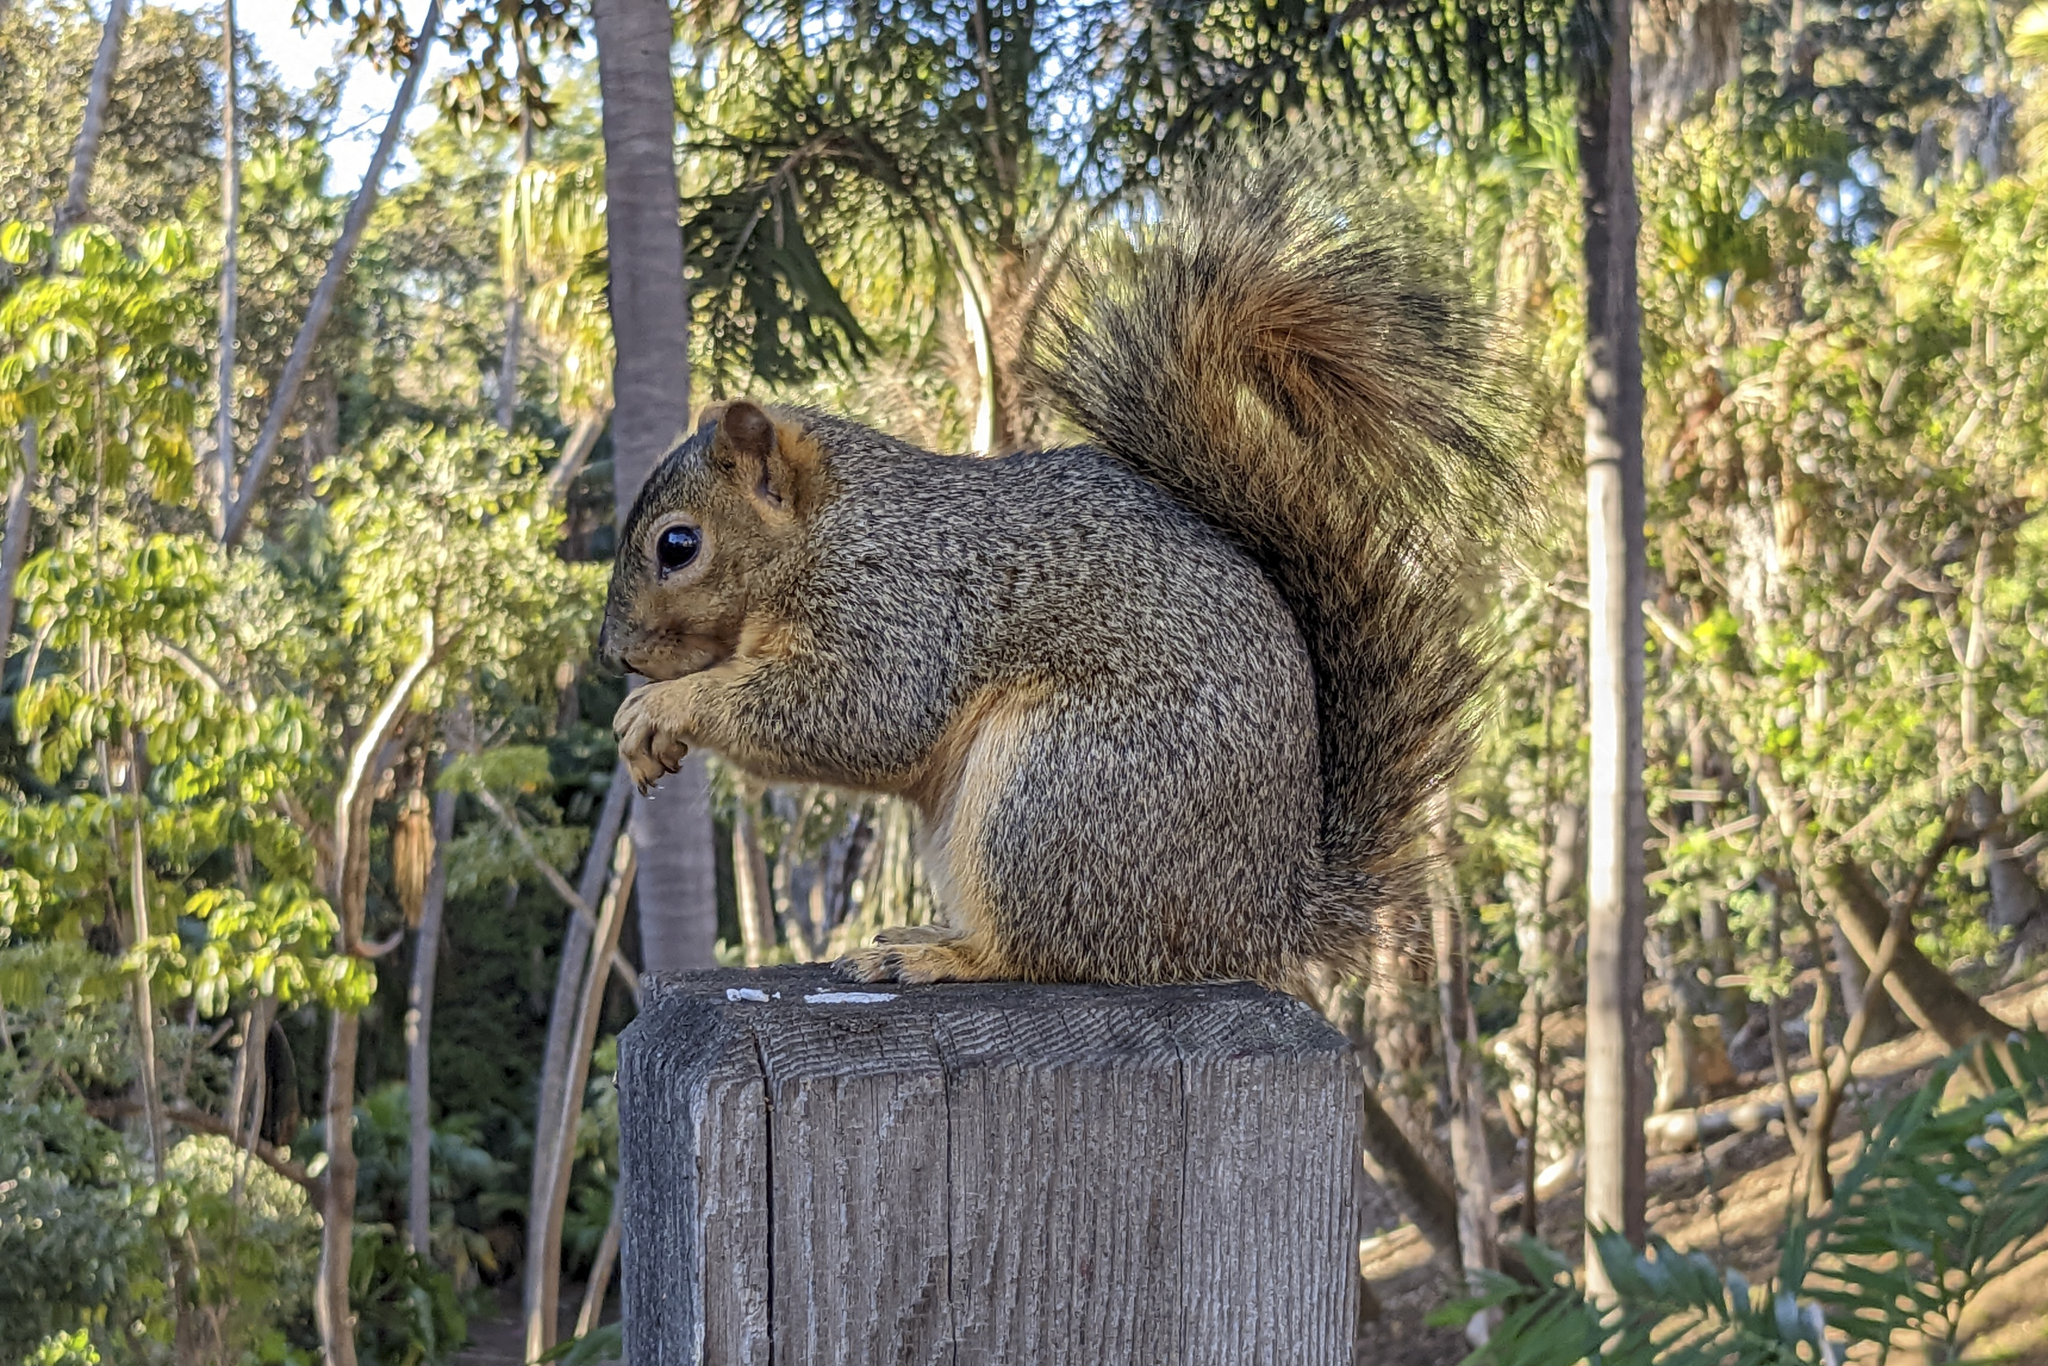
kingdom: Animalia
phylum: Chordata
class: Mammalia
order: Rodentia
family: Sciuridae
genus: Sciurus
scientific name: Sciurus niger
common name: Fox squirrel
